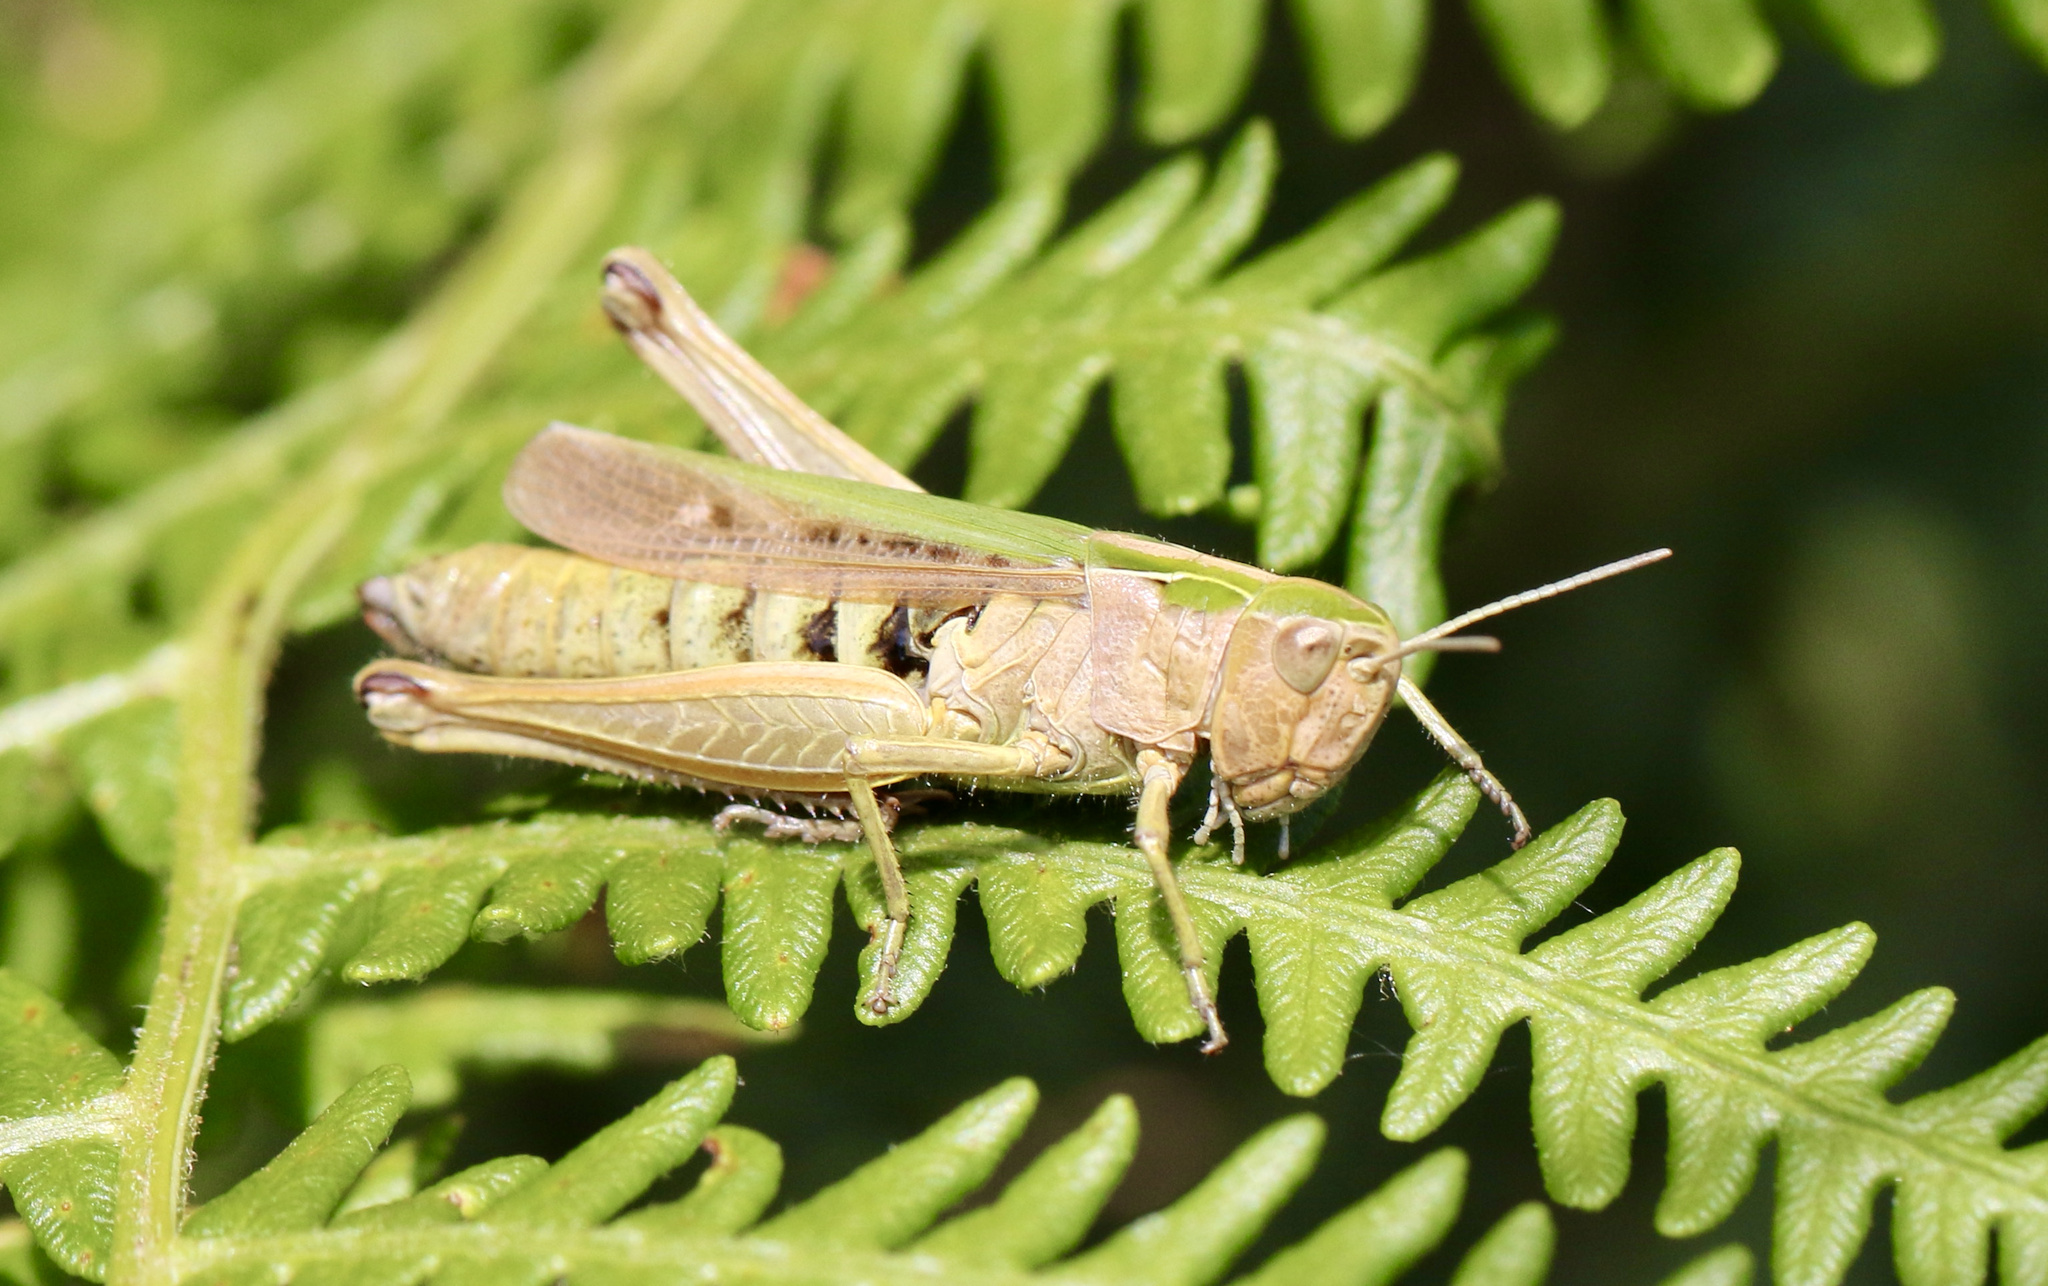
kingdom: Animalia
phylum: Arthropoda
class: Insecta
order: Orthoptera
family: Acrididae
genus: Omocestus
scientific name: Omocestus viridulus
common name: Common green grasshopper
